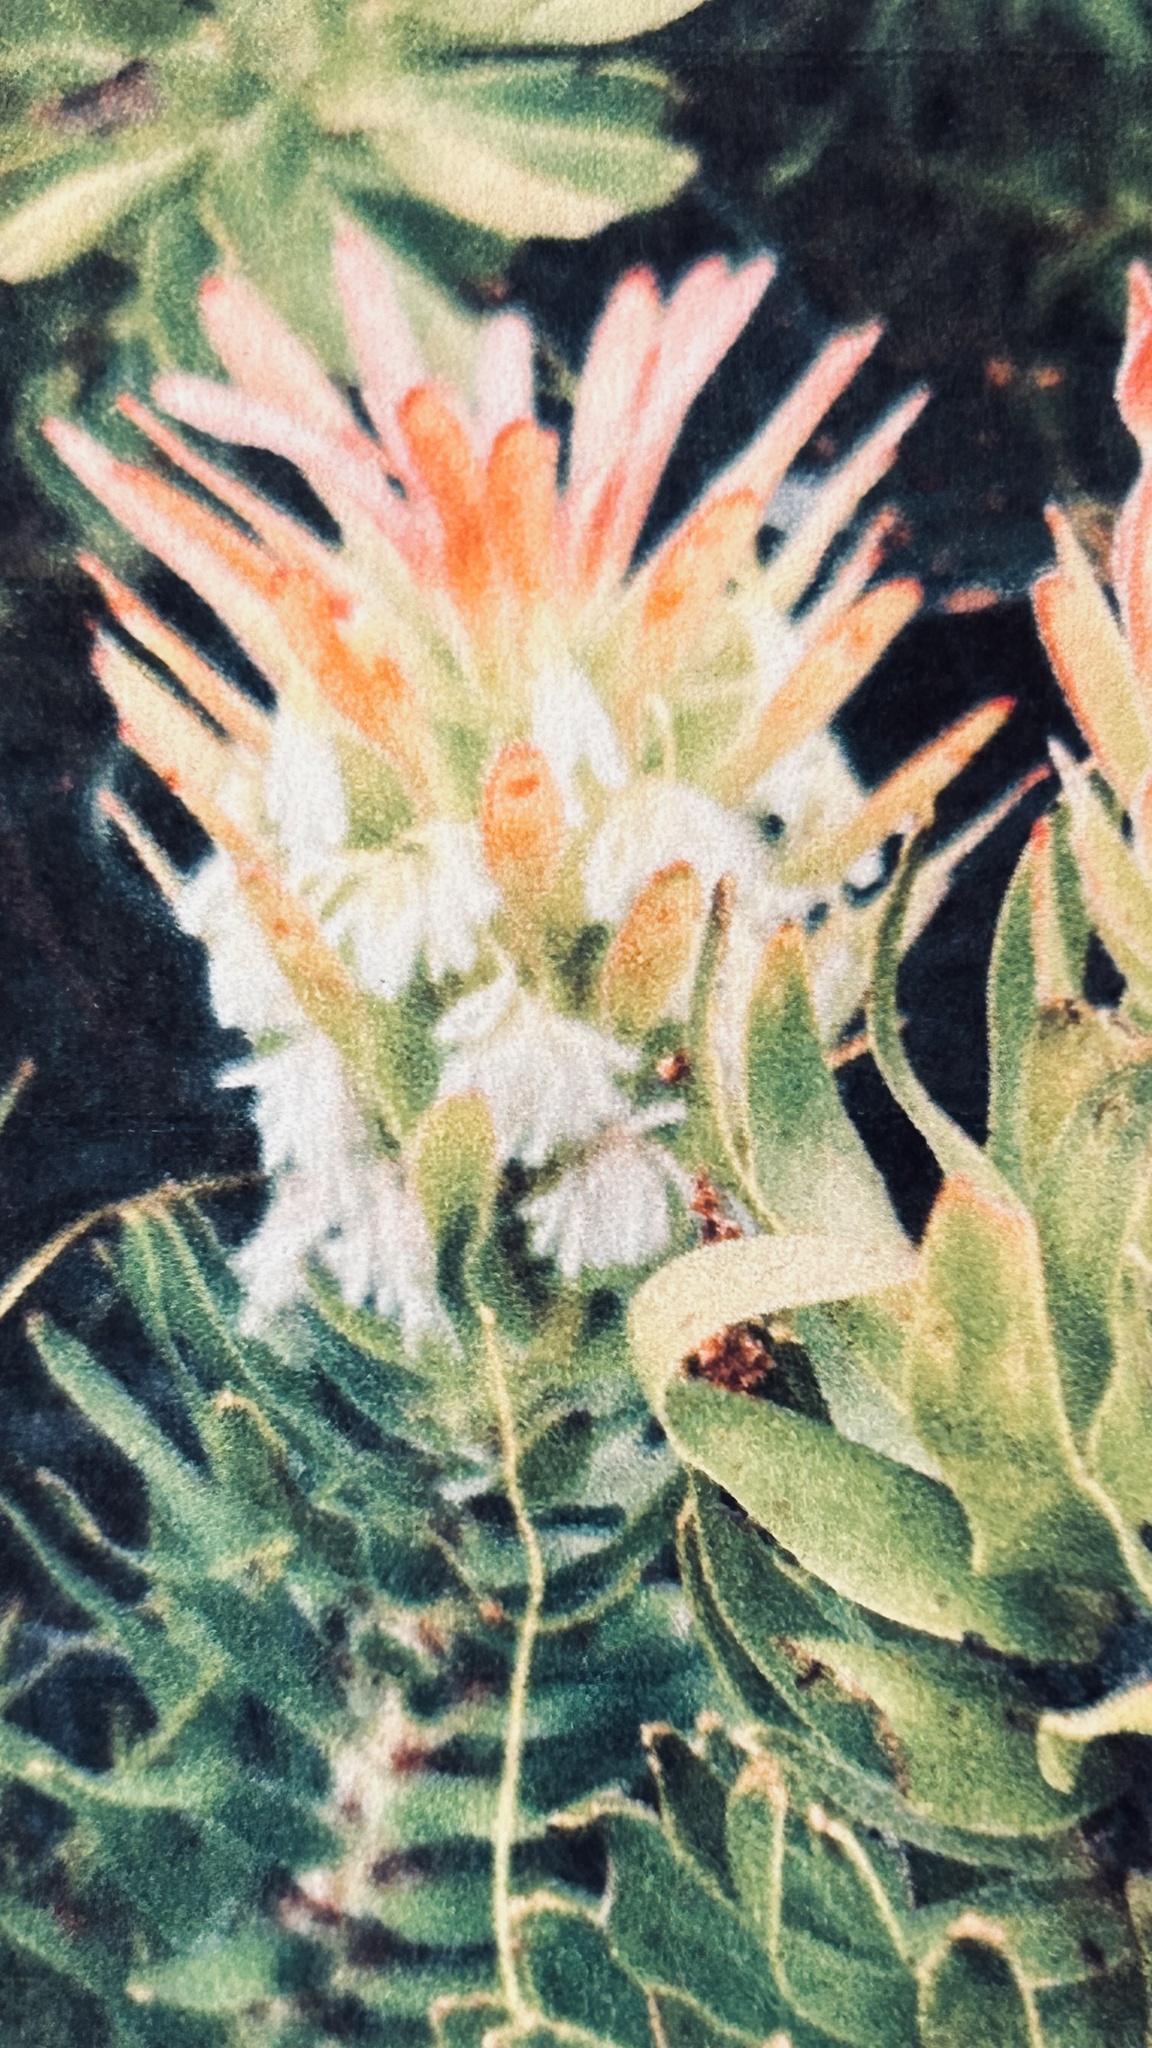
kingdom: Plantae
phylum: Tracheophyta
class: Magnoliopsida
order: Proteales
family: Proteaceae
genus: Mimetes
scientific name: Mimetes cucullatus
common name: Common pagoda
